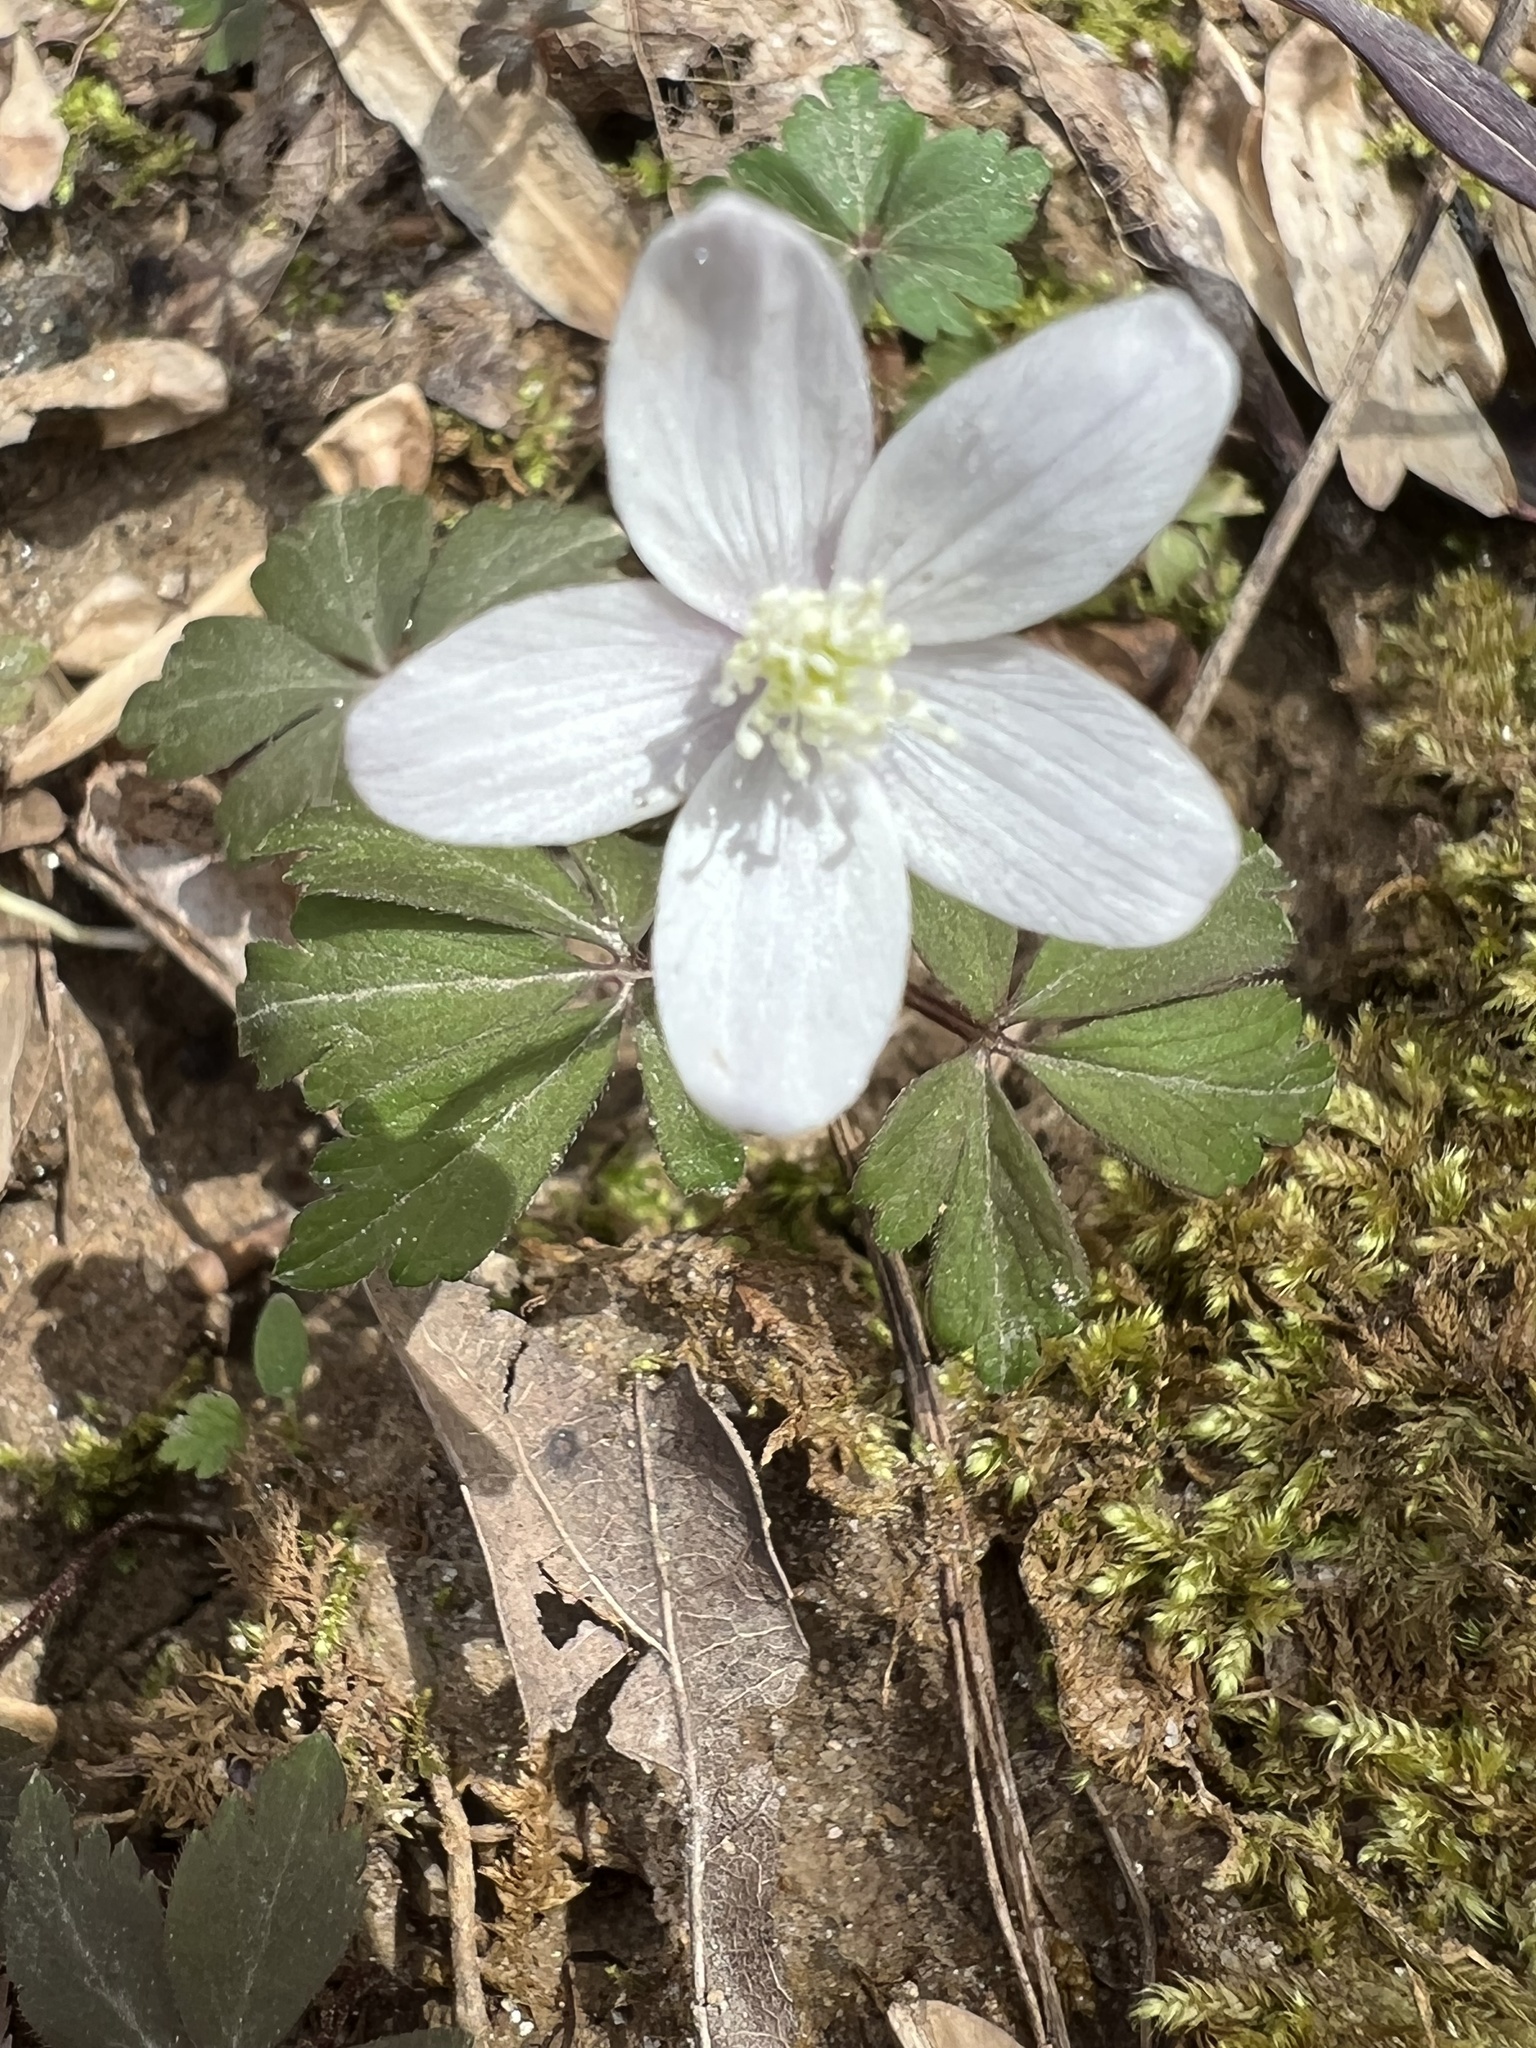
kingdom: Plantae
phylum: Tracheophyta
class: Magnoliopsida
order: Ranunculales
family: Ranunculaceae
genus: Anemone
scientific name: Anemone quinquefolia
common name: Wood anemone
